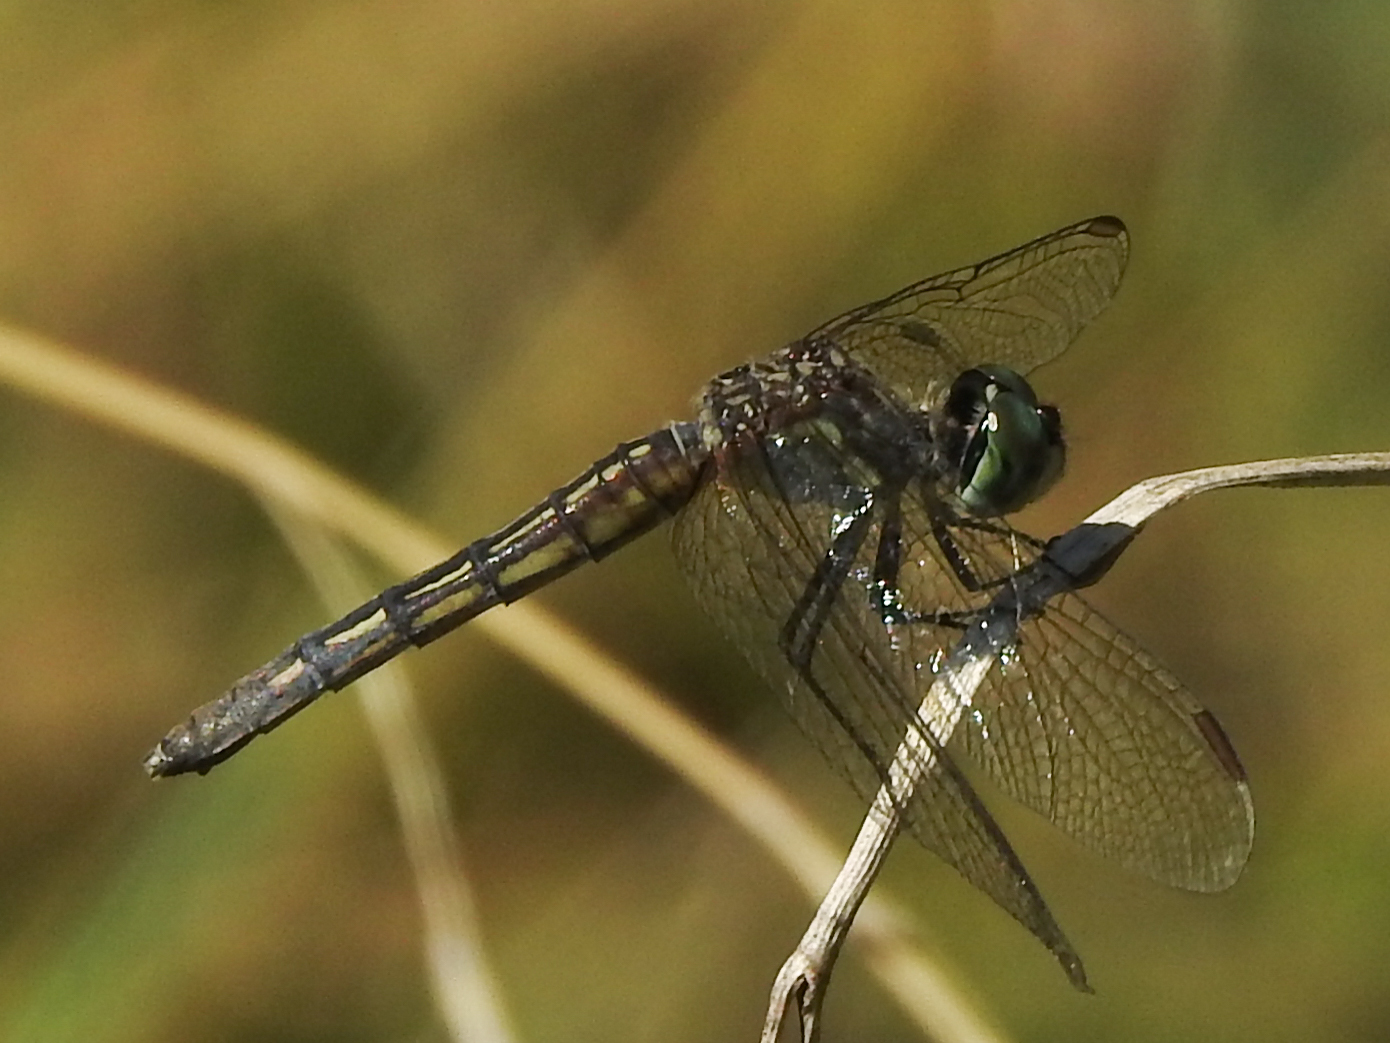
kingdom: Animalia
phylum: Arthropoda
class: Insecta
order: Odonata
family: Libellulidae
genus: Pachydiplax
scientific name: Pachydiplax longipennis
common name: Blue dasher
